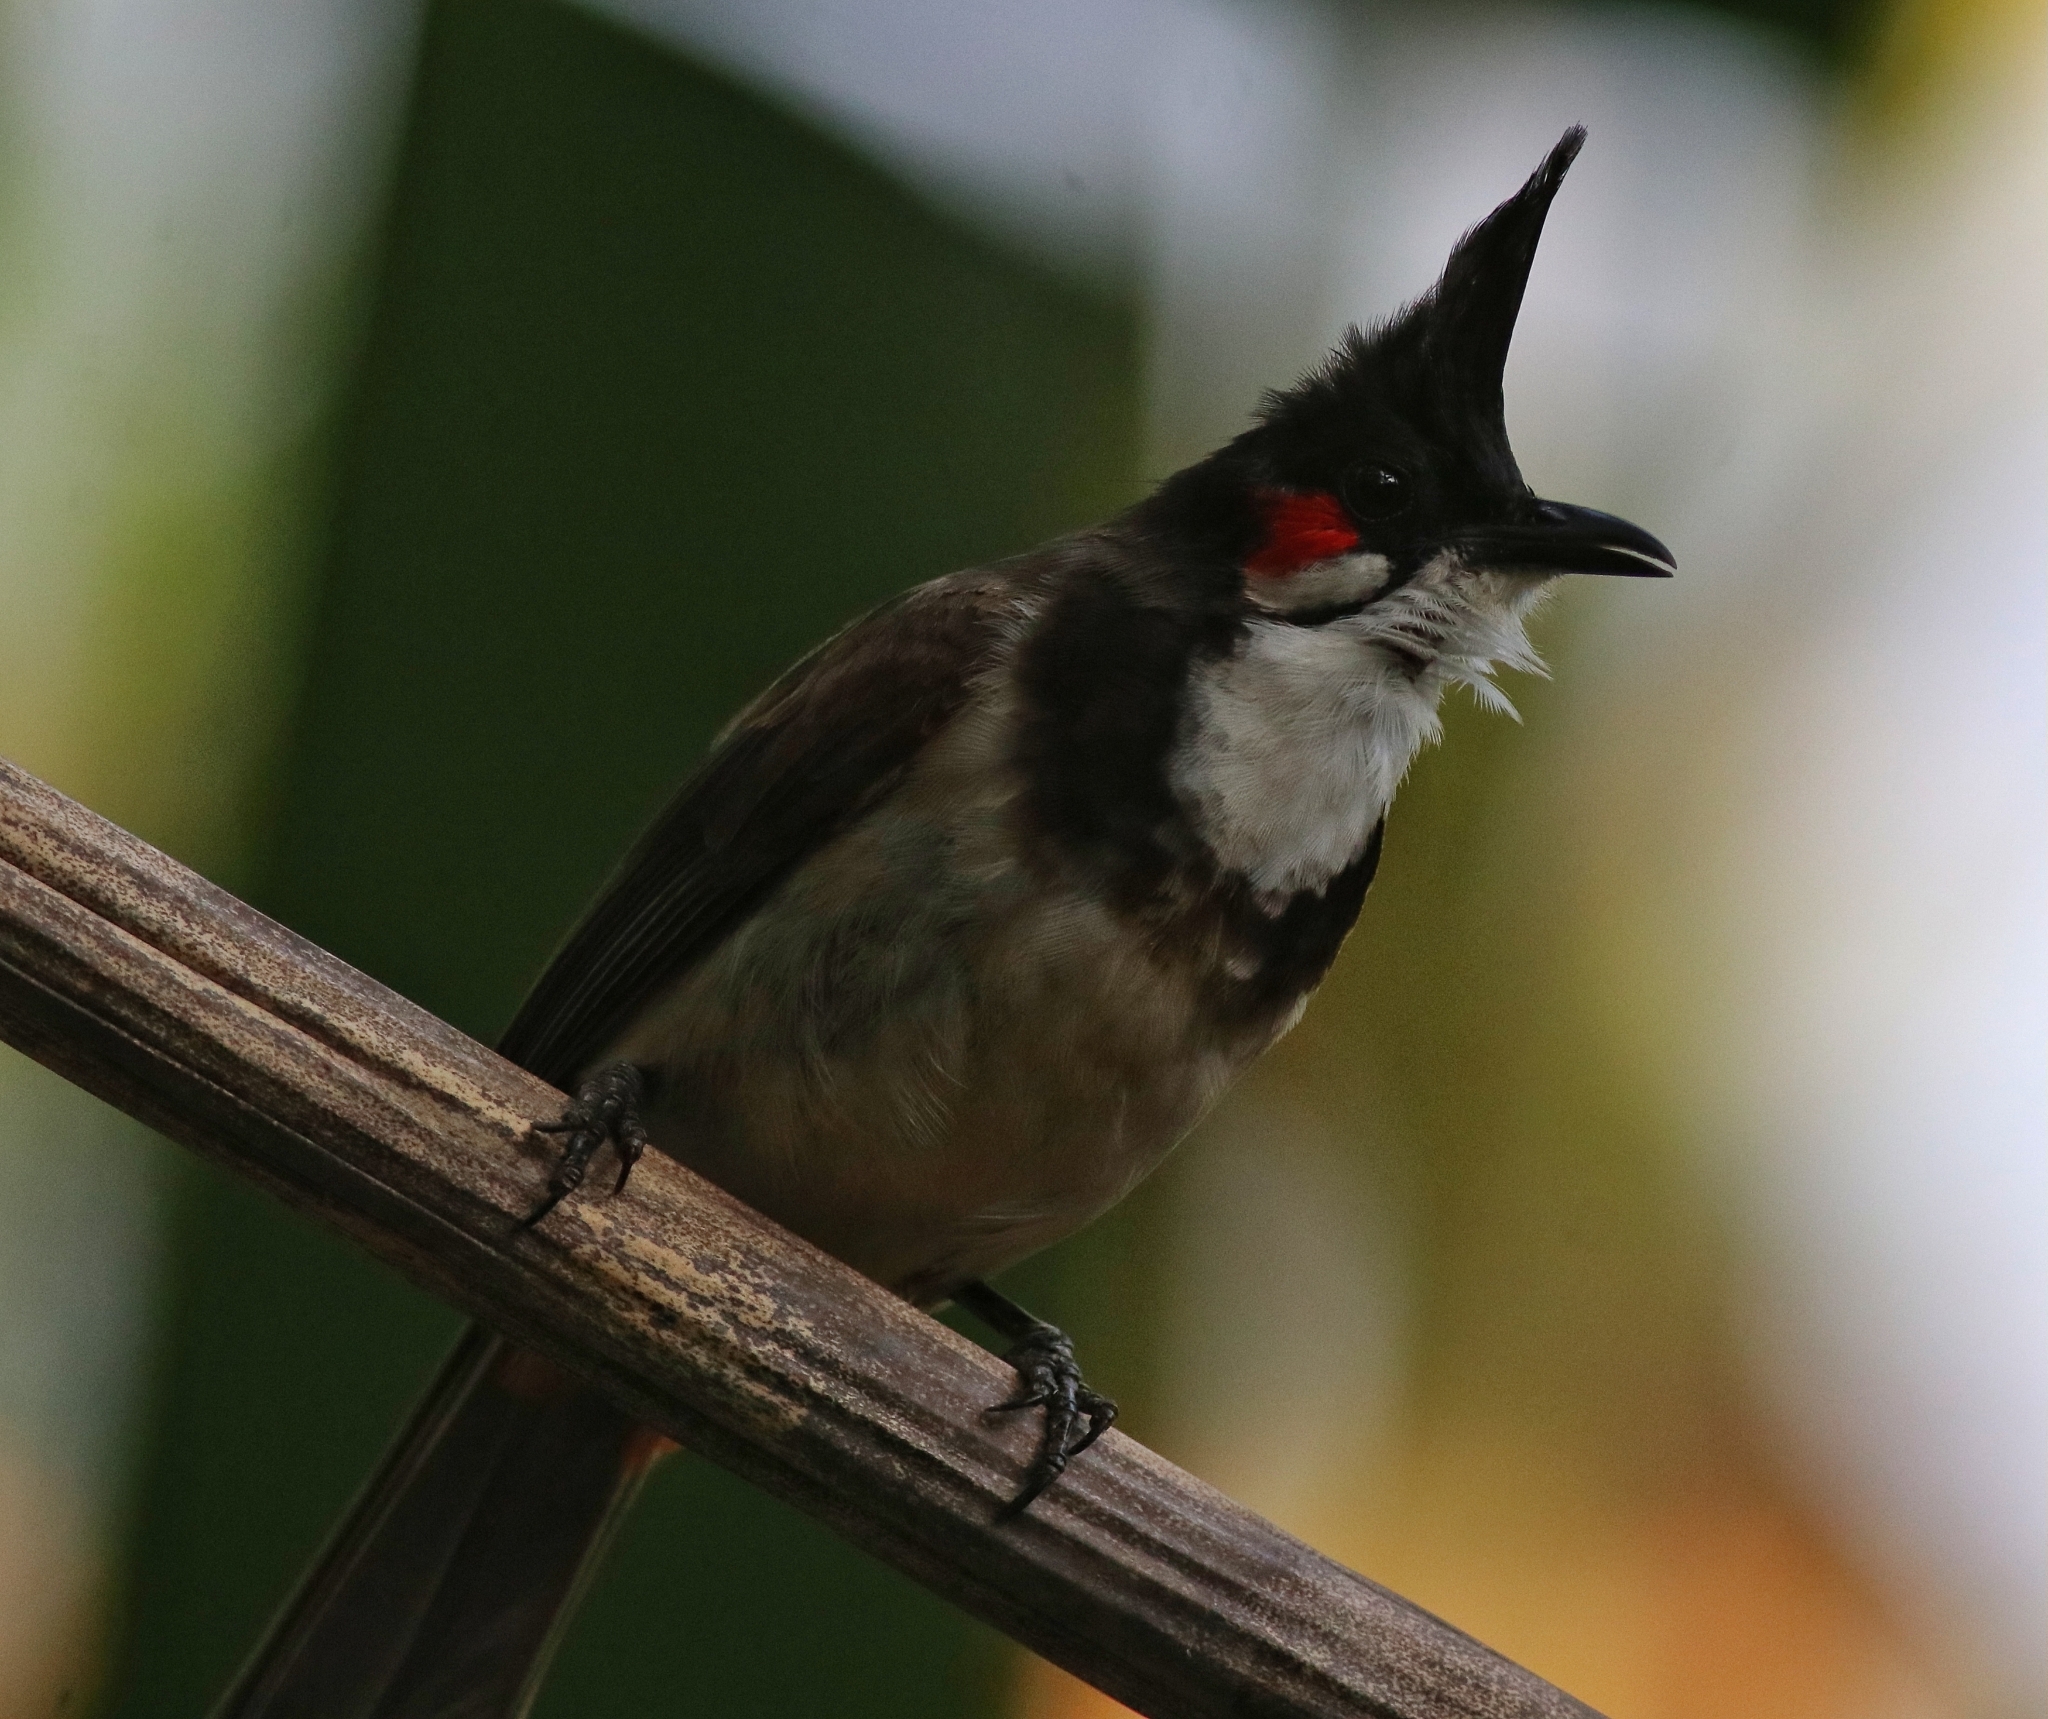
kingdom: Animalia
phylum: Chordata
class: Aves
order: Passeriformes
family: Pycnonotidae
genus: Pycnonotus
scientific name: Pycnonotus jocosus
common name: Red-whiskered bulbul
